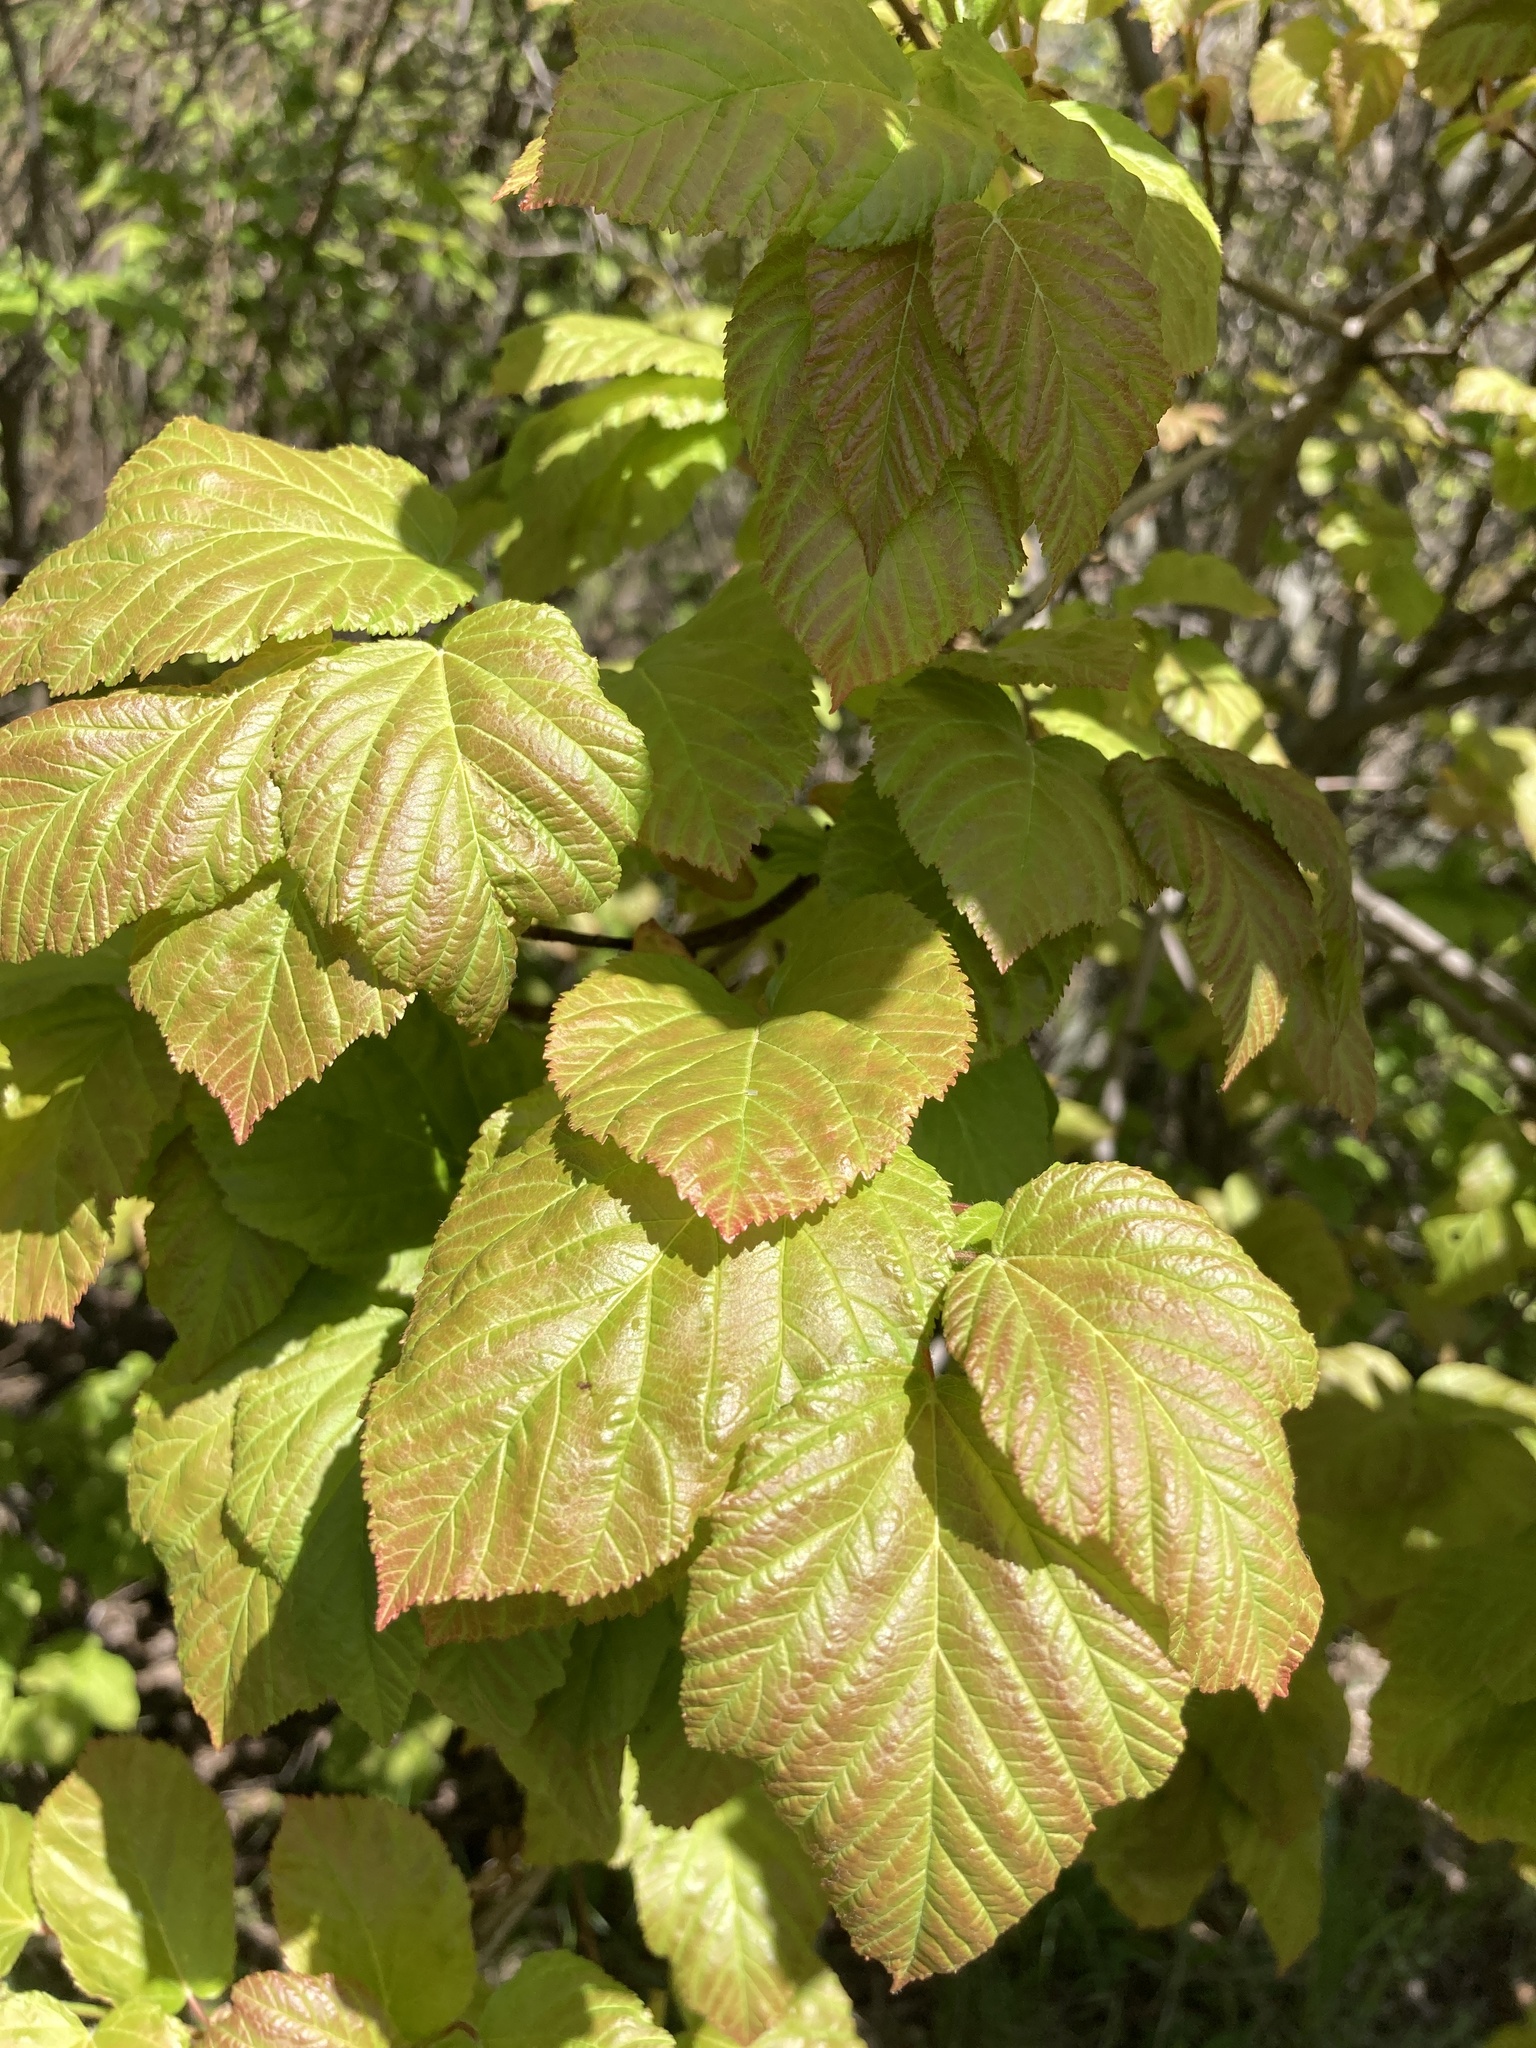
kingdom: Plantae
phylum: Tracheophyta
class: Magnoliopsida
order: Sapindales
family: Sapindaceae
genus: Acer
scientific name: Acer tataricum
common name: Tartar maple
